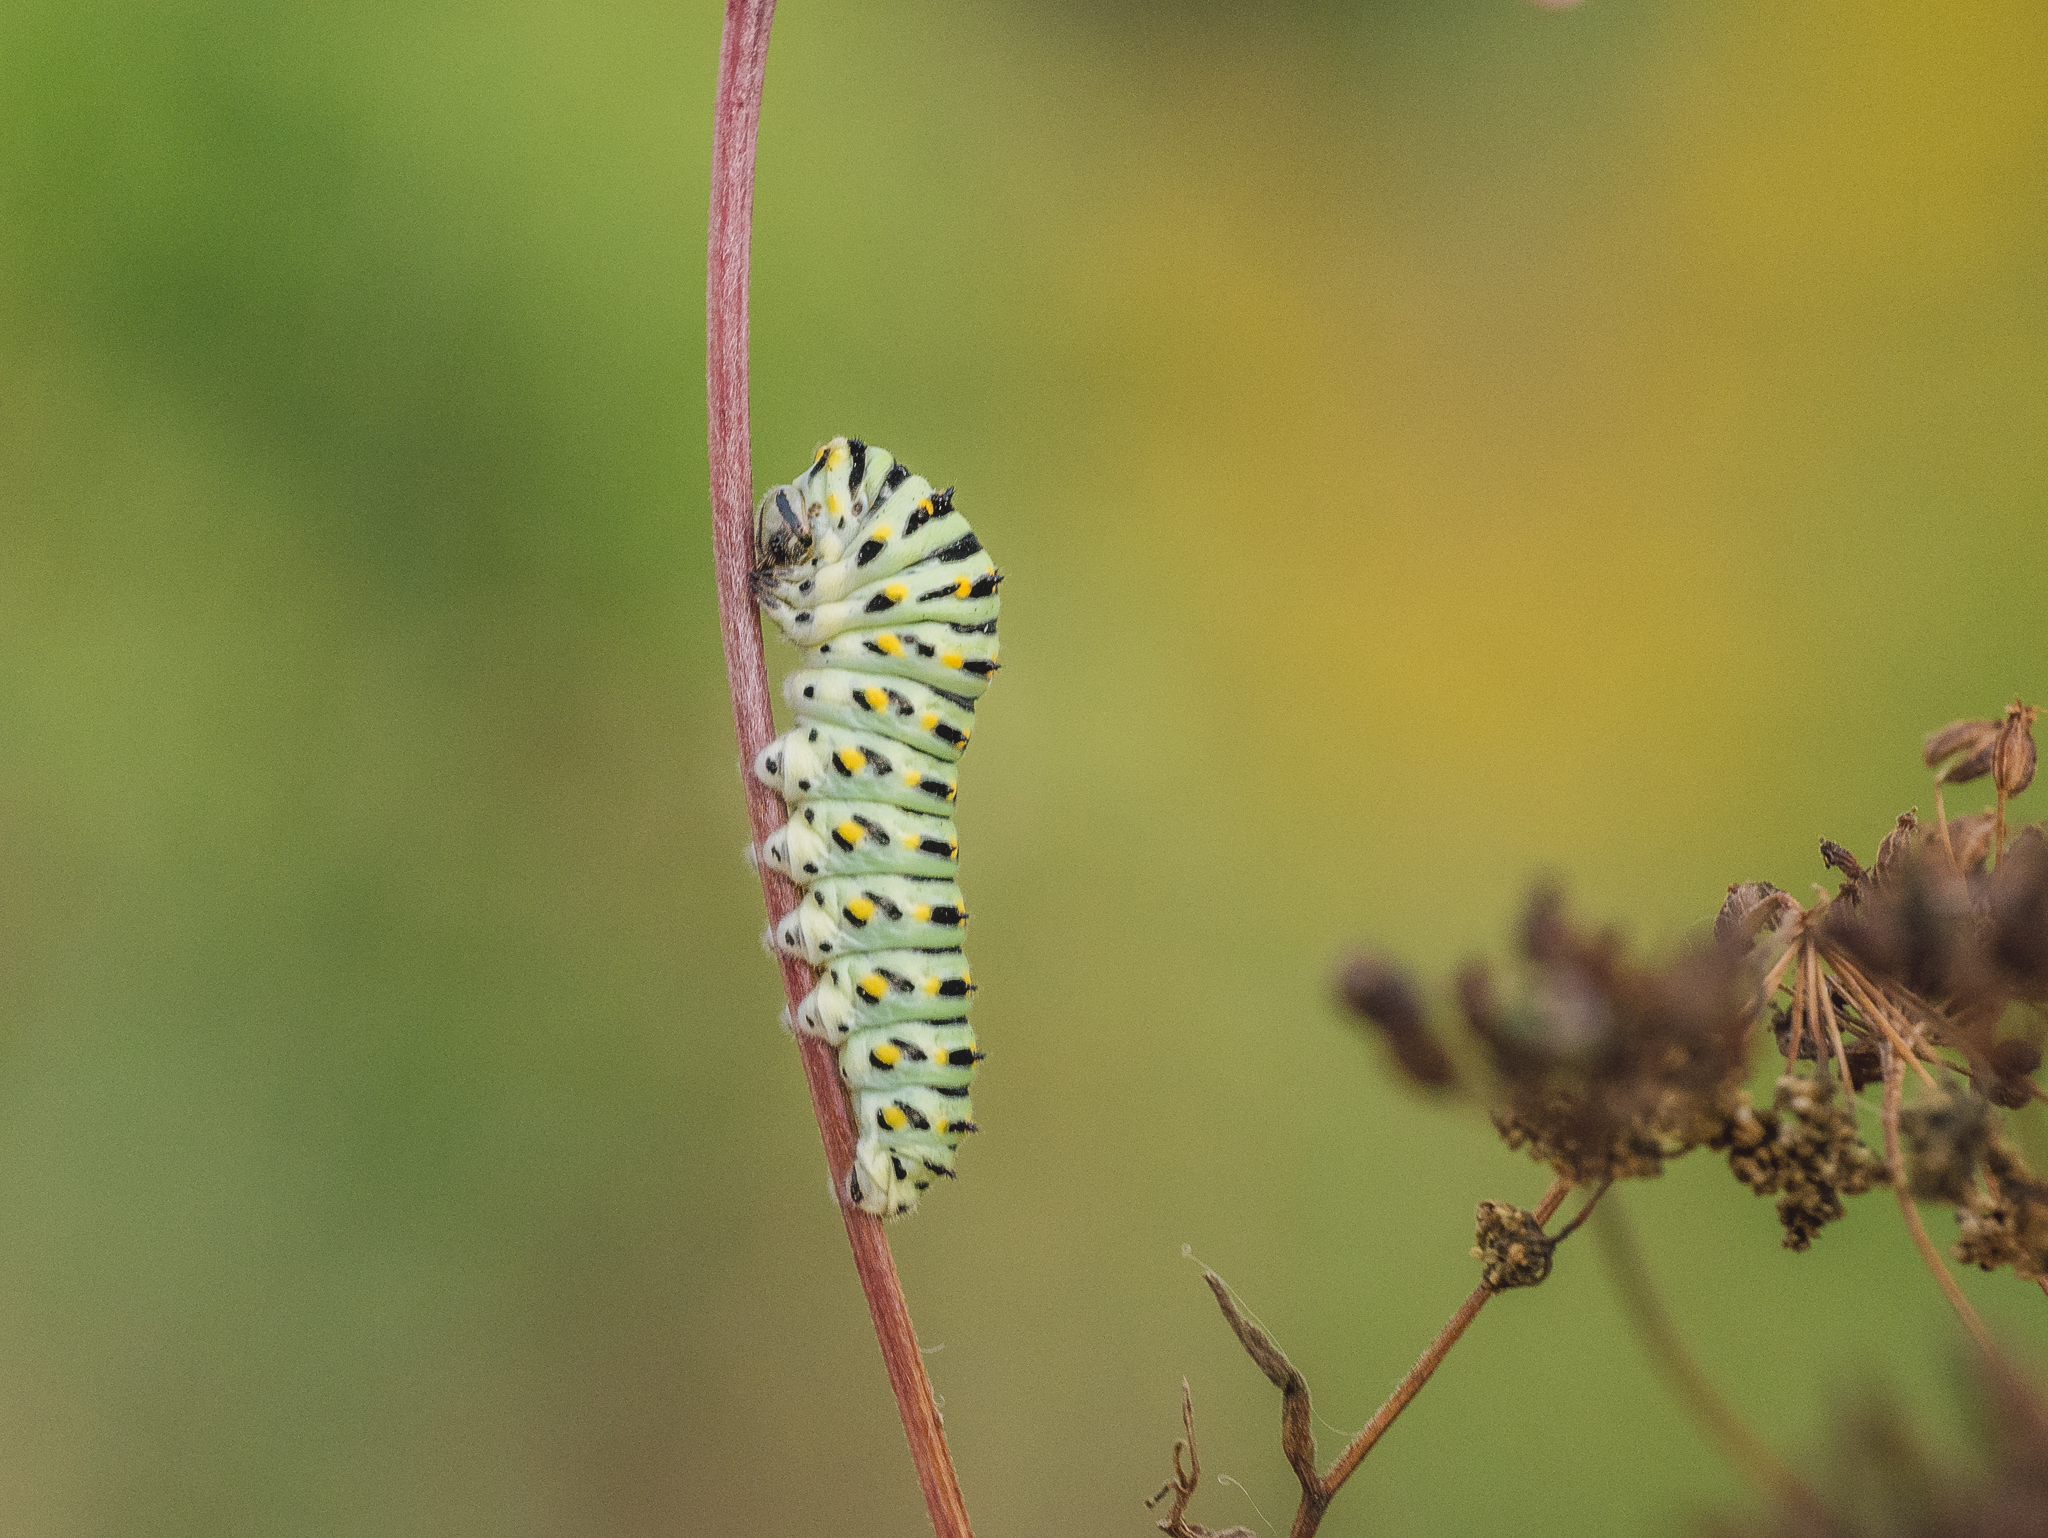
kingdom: Animalia
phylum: Arthropoda
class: Insecta
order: Lepidoptera
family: Papilionidae
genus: Papilio
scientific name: Papilio machaon
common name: Swallowtail
